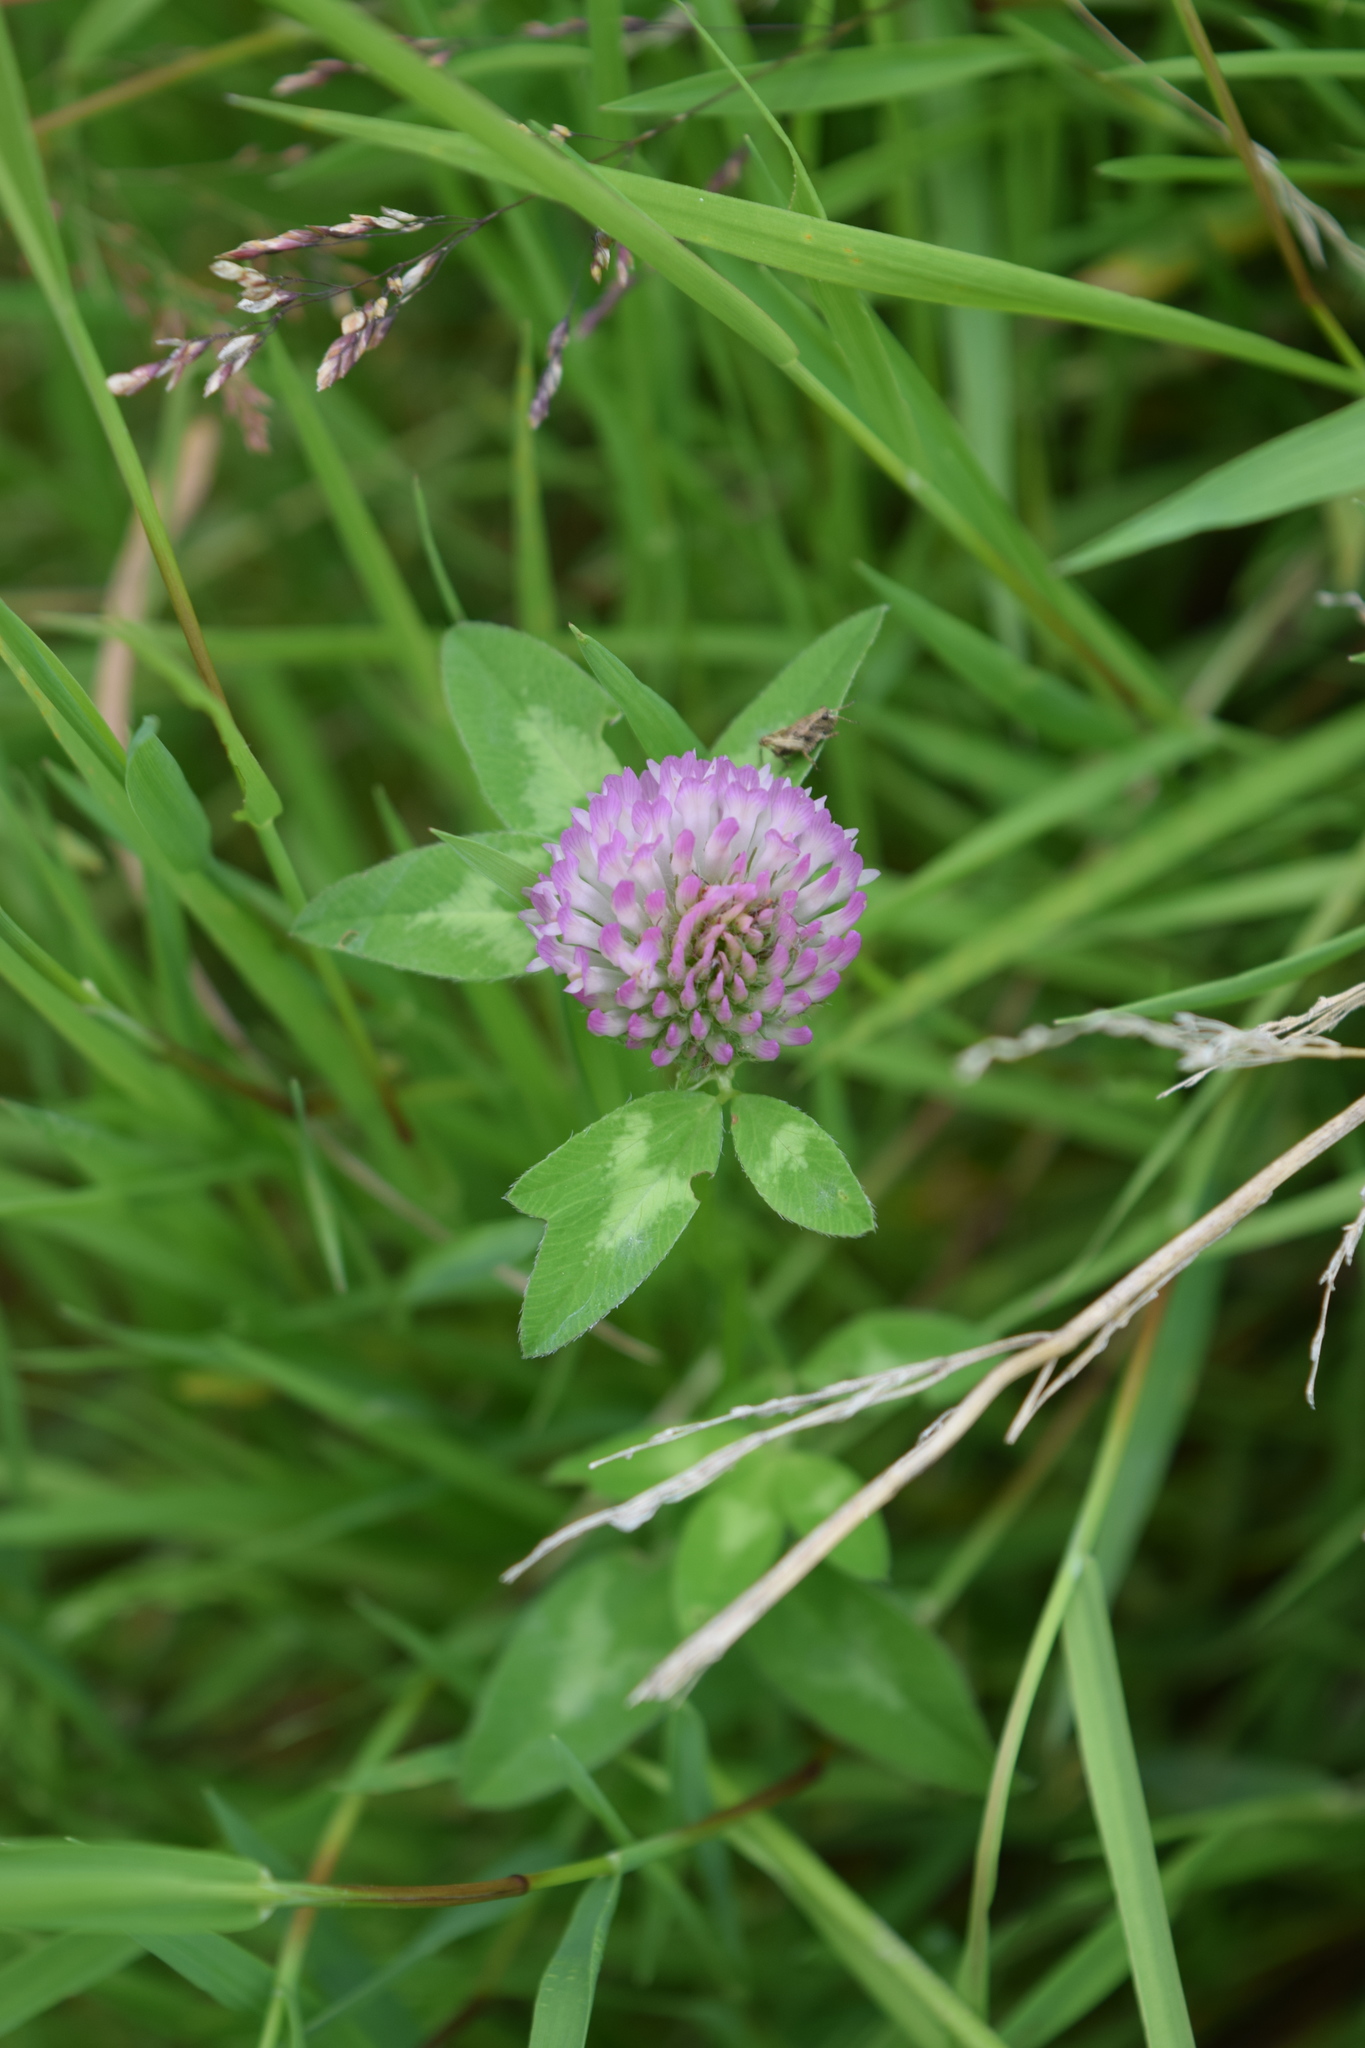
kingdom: Plantae
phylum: Tracheophyta
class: Magnoliopsida
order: Fabales
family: Fabaceae
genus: Trifolium
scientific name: Trifolium pratense
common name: Red clover
